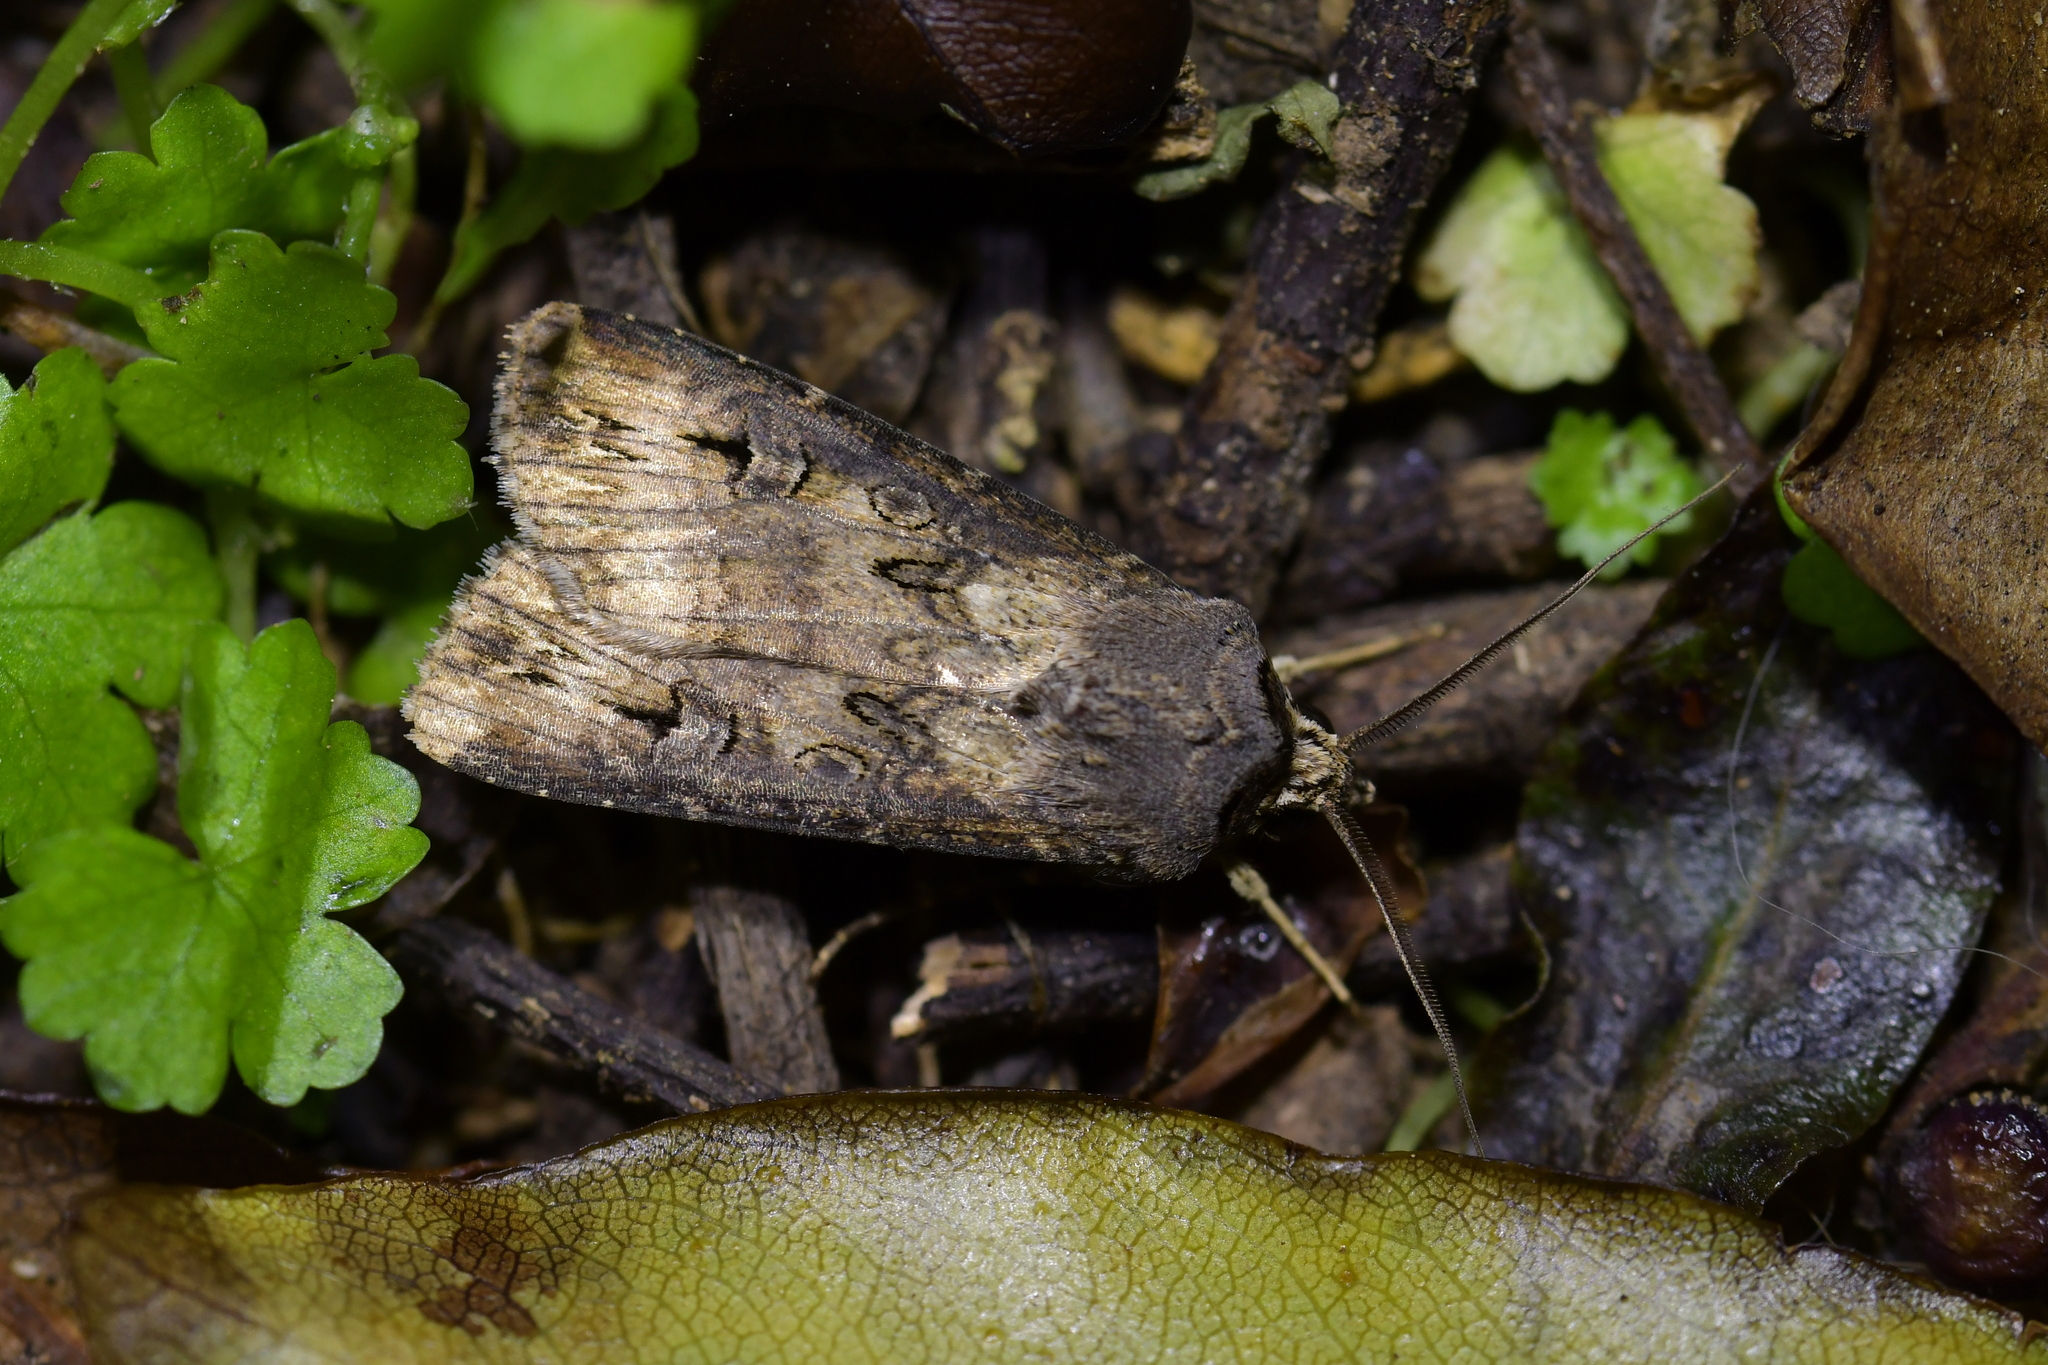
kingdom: Animalia
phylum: Arthropoda
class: Insecta
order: Lepidoptera
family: Noctuidae
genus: Agrotis
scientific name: Agrotis ipsilon
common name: Dark sword-grass
